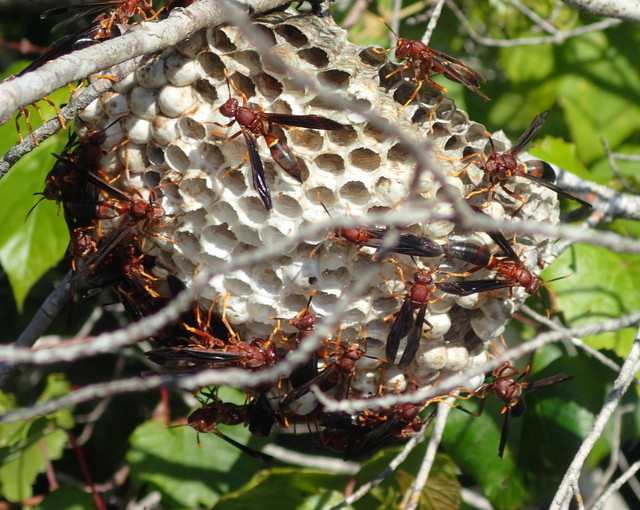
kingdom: Animalia
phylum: Arthropoda
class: Insecta
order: Hymenoptera
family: Eumenidae
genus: Polistes
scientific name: Polistes annularis
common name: Ringed paper wasp
